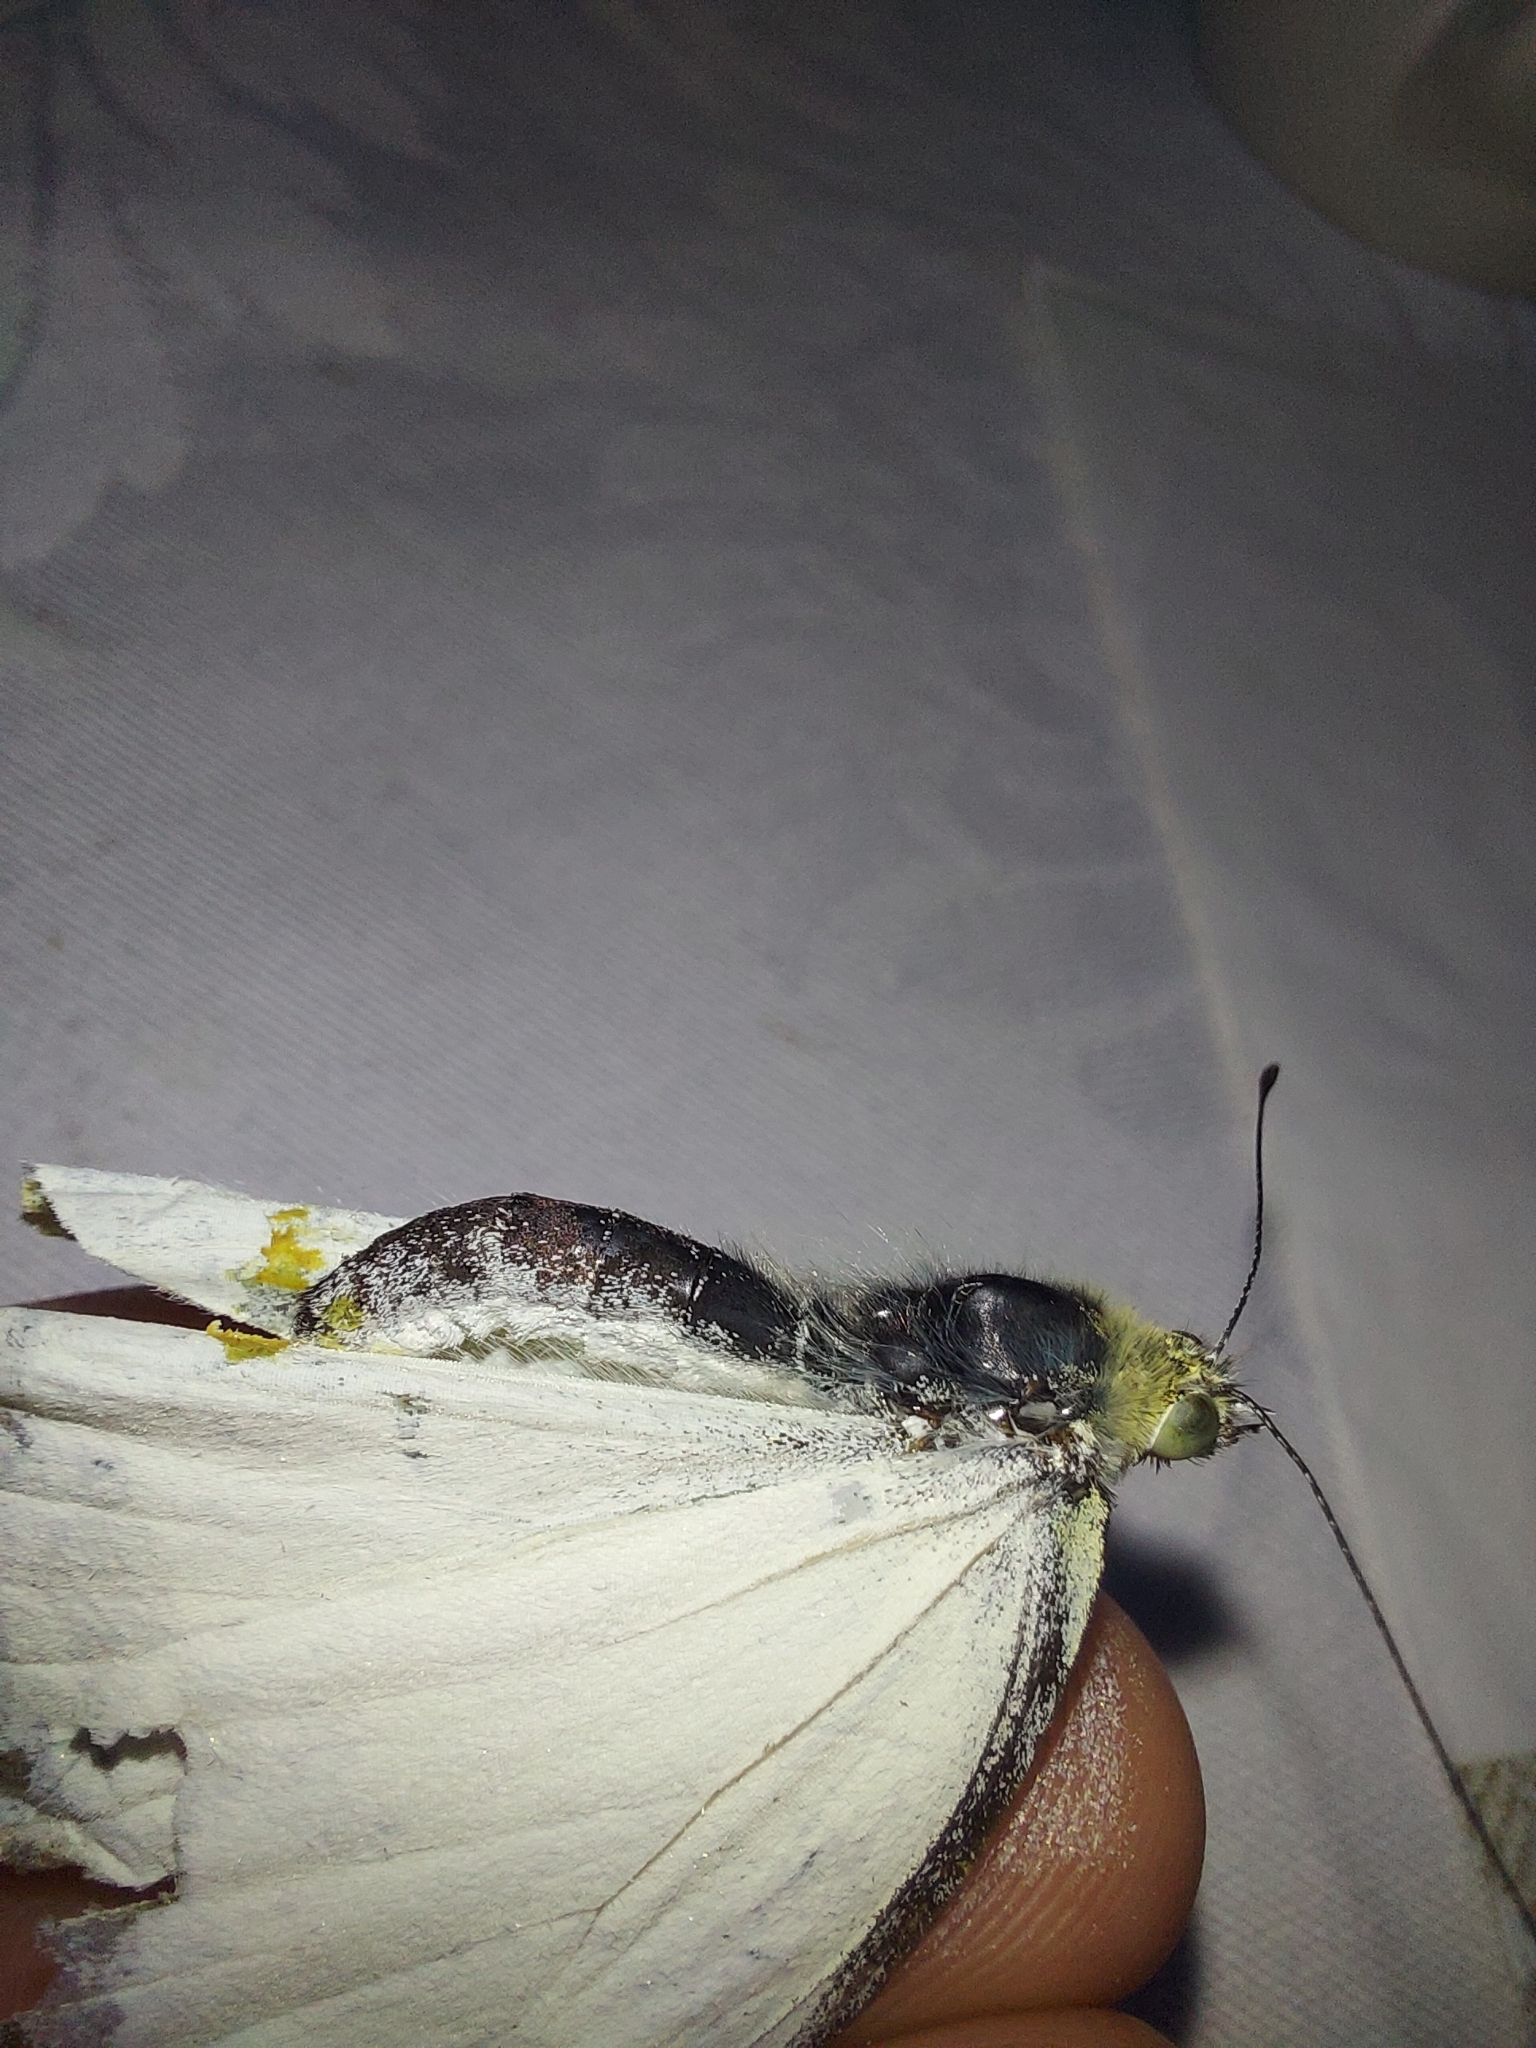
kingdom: Animalia
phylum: Arthropoda
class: Insecta
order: Lepidoptera
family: Pieridae
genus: Pieris
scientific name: Pieris brassicae
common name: Large white
